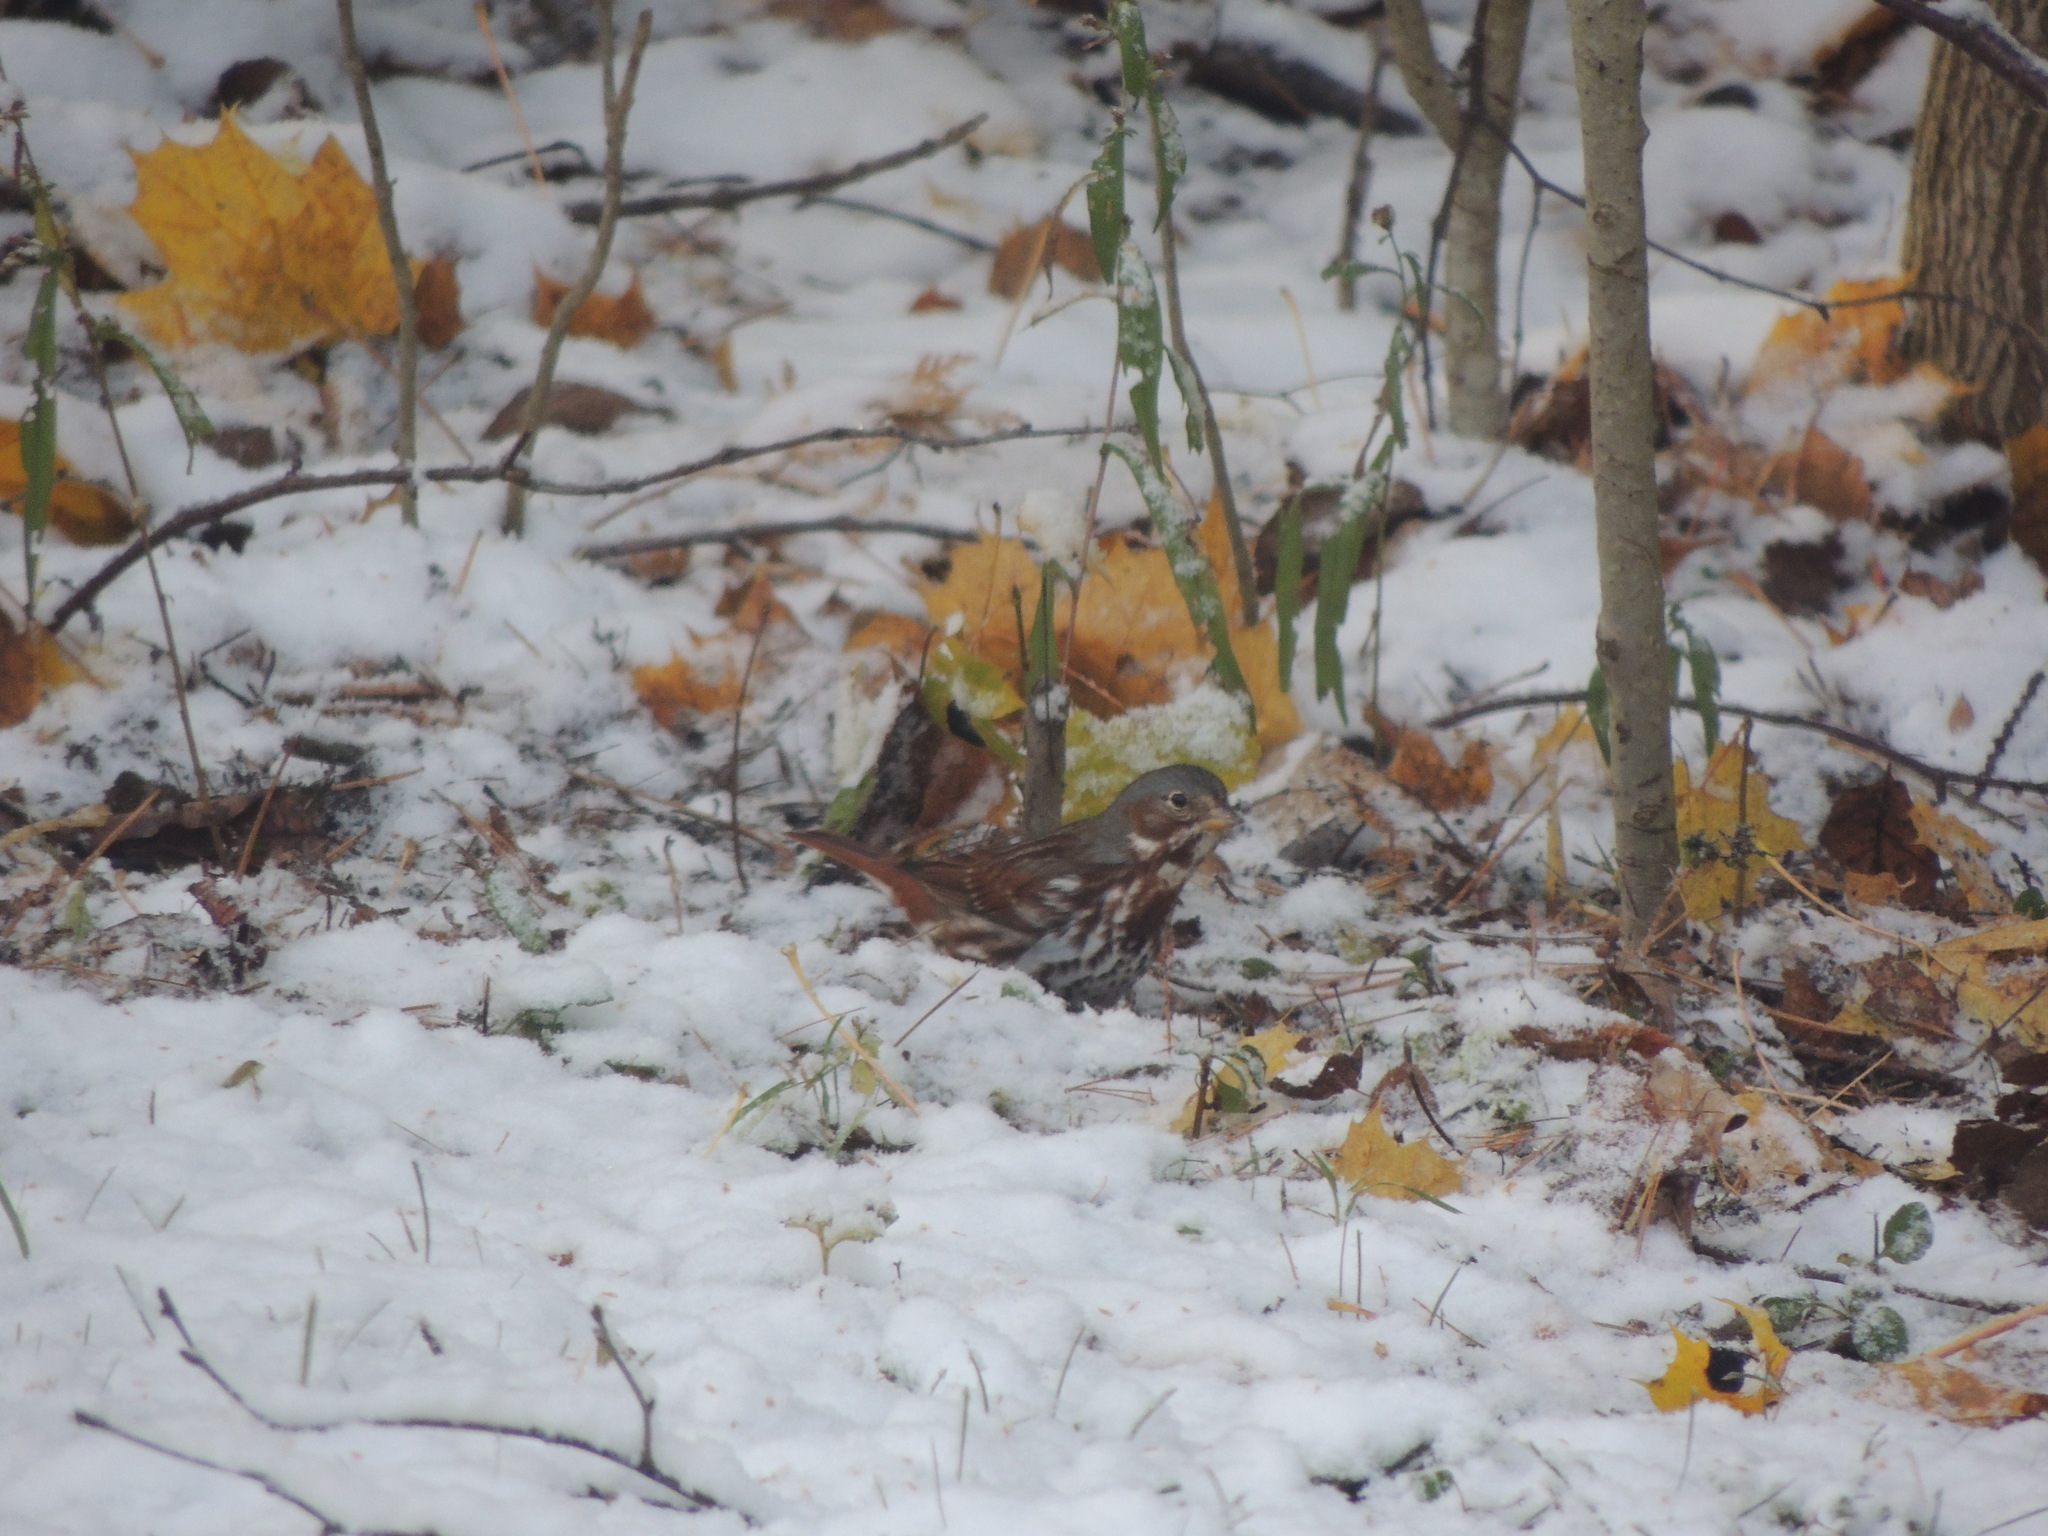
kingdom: Animalia
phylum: Chordata
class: Aves
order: Passeriformes
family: Passerellidae
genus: Passerella
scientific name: Passerella iliaca
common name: Fox sparrow
